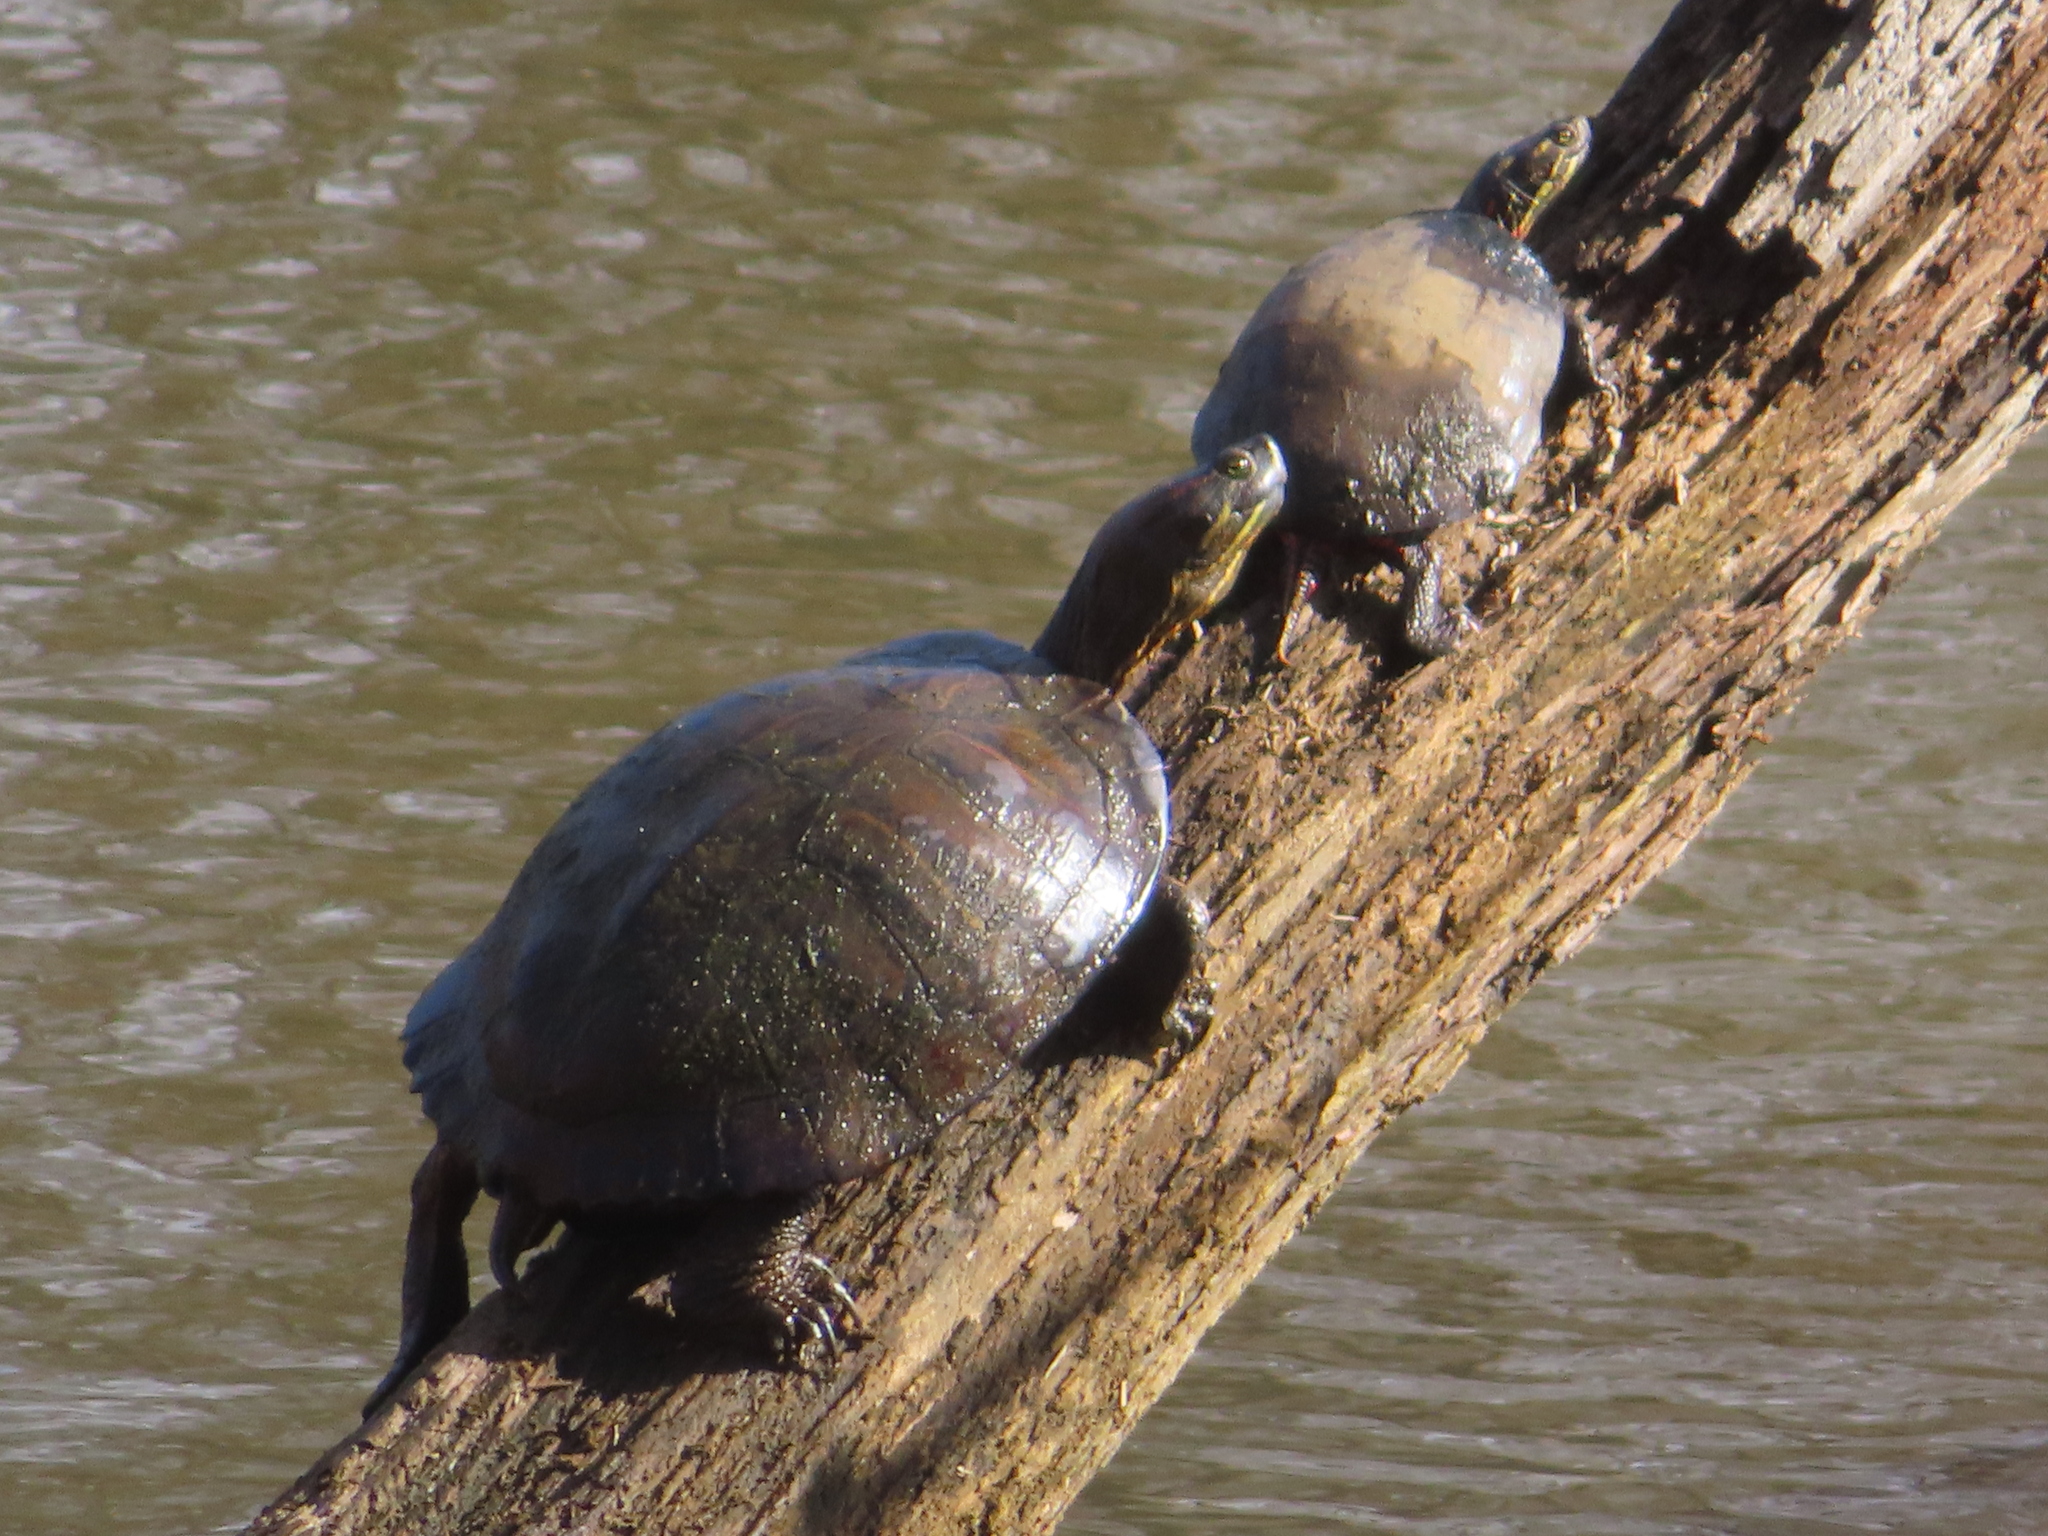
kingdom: Animalia
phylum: Chordata
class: Testudines
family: Emydidae
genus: Trachemys
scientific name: Trachemys scripta
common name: Slider
